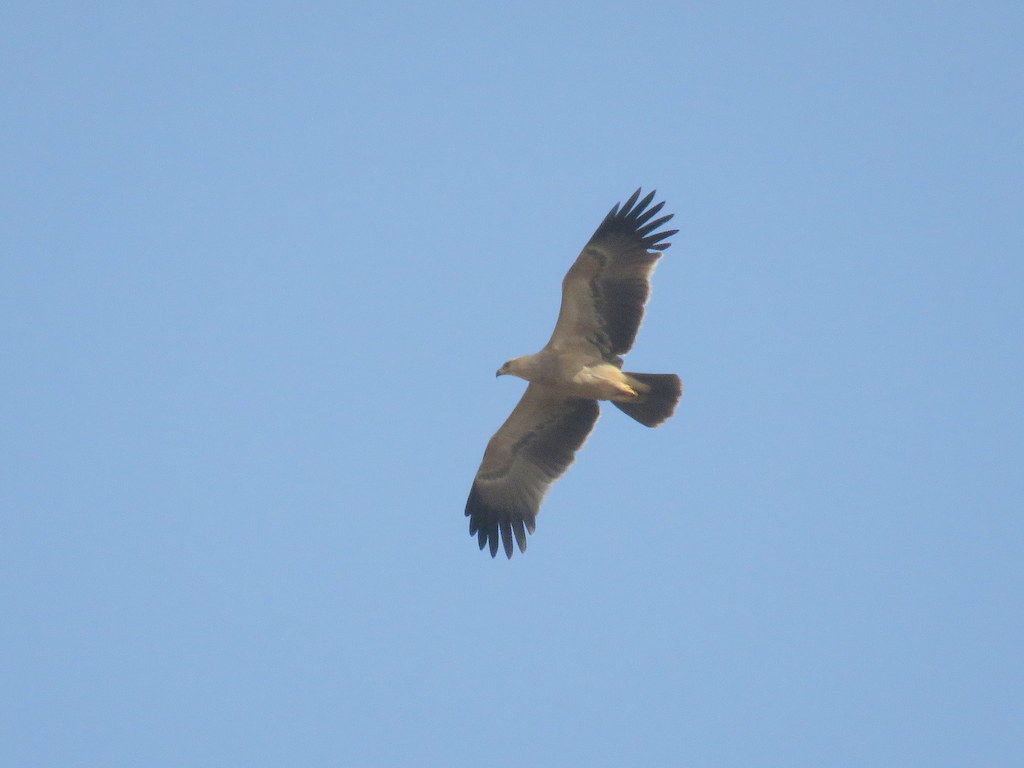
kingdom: Animalia
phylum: Chordata
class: Aves
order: Accipitriformes
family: Accipitridae
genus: Aquila
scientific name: Aquila rapax
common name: Tawny eagle
